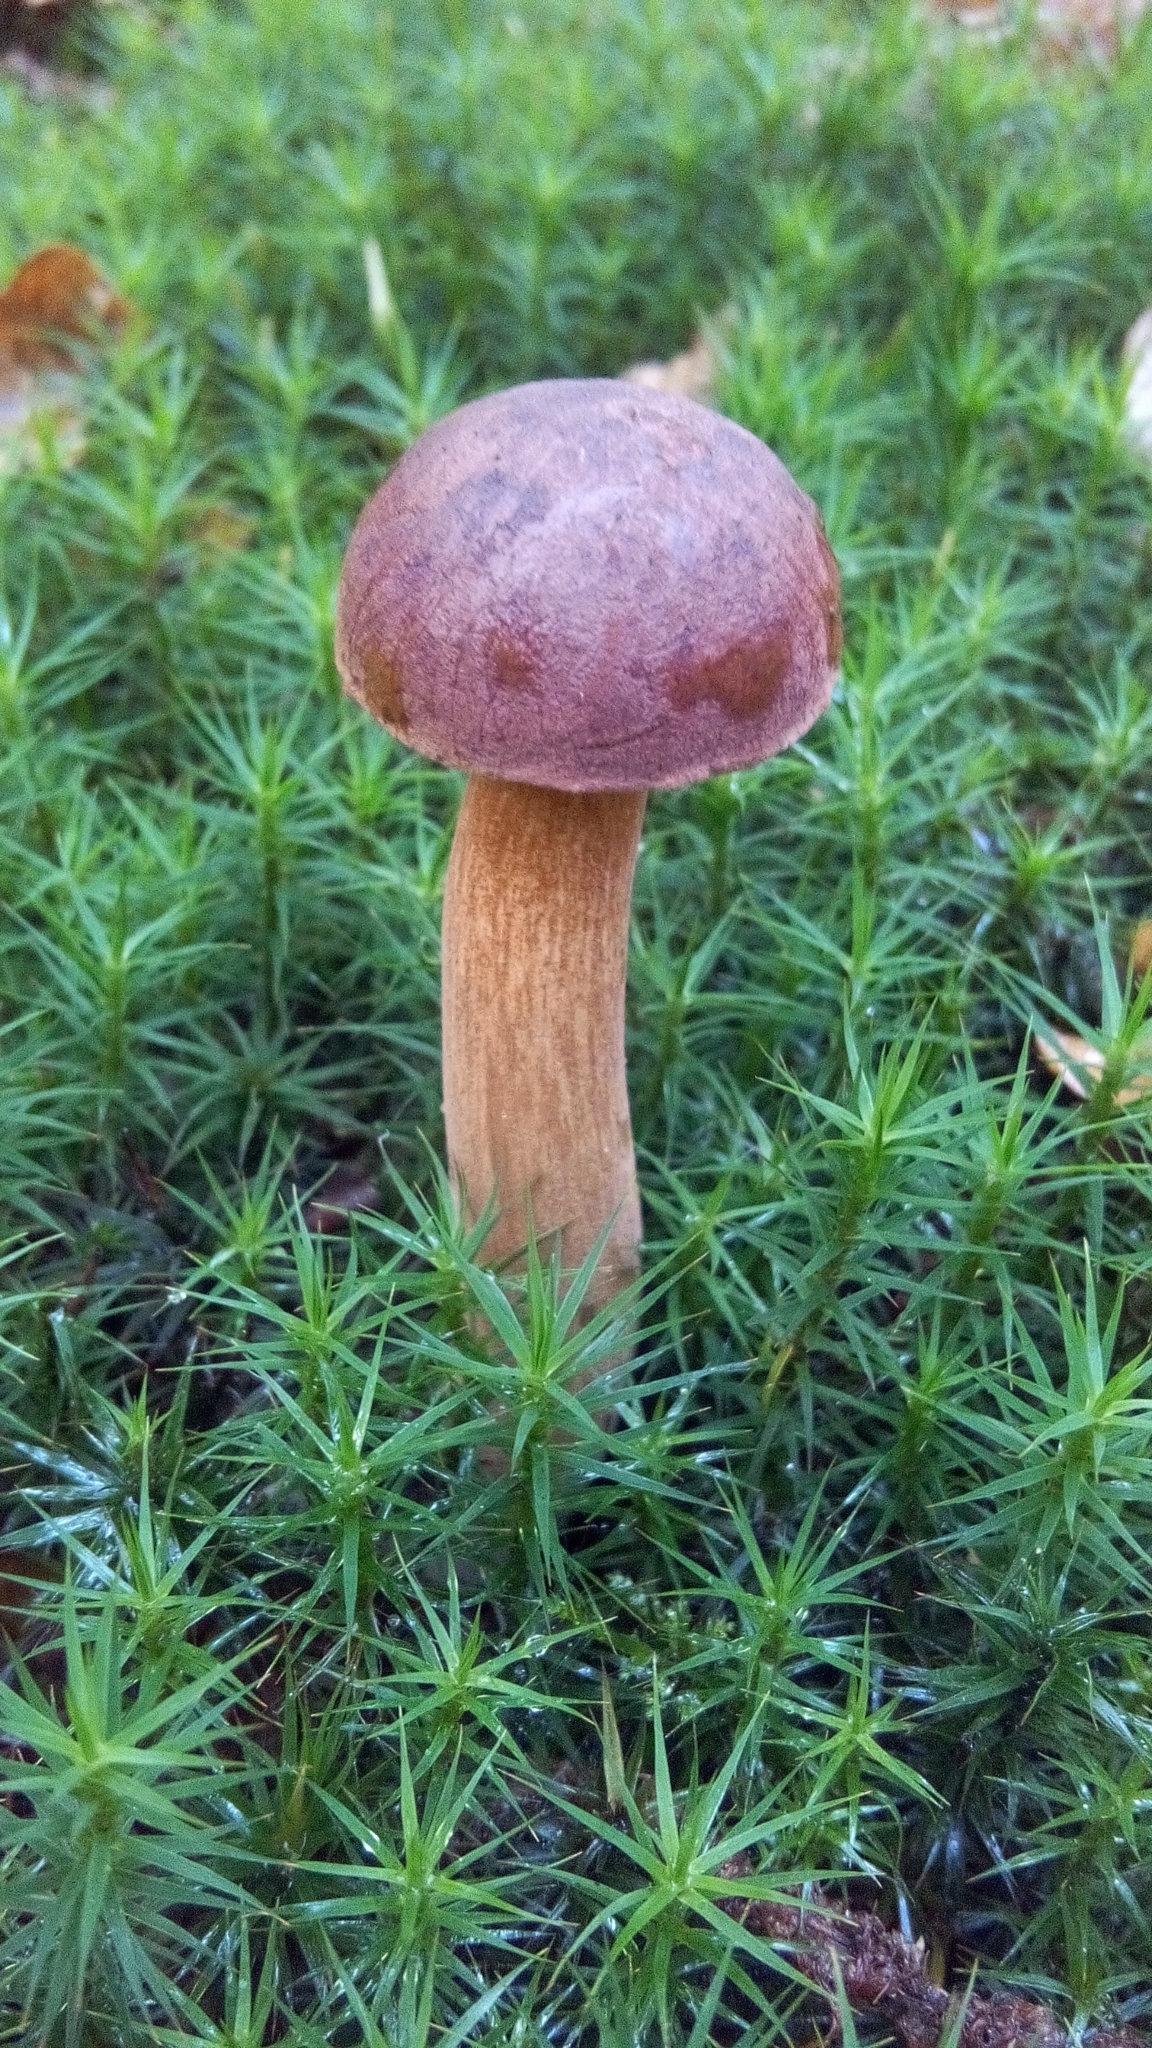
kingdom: Fungi
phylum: Basidiomycota
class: Agaricomycetes
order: Boletales
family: Boletaceae
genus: Imleria
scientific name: Imleria badia
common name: Bay bolete
